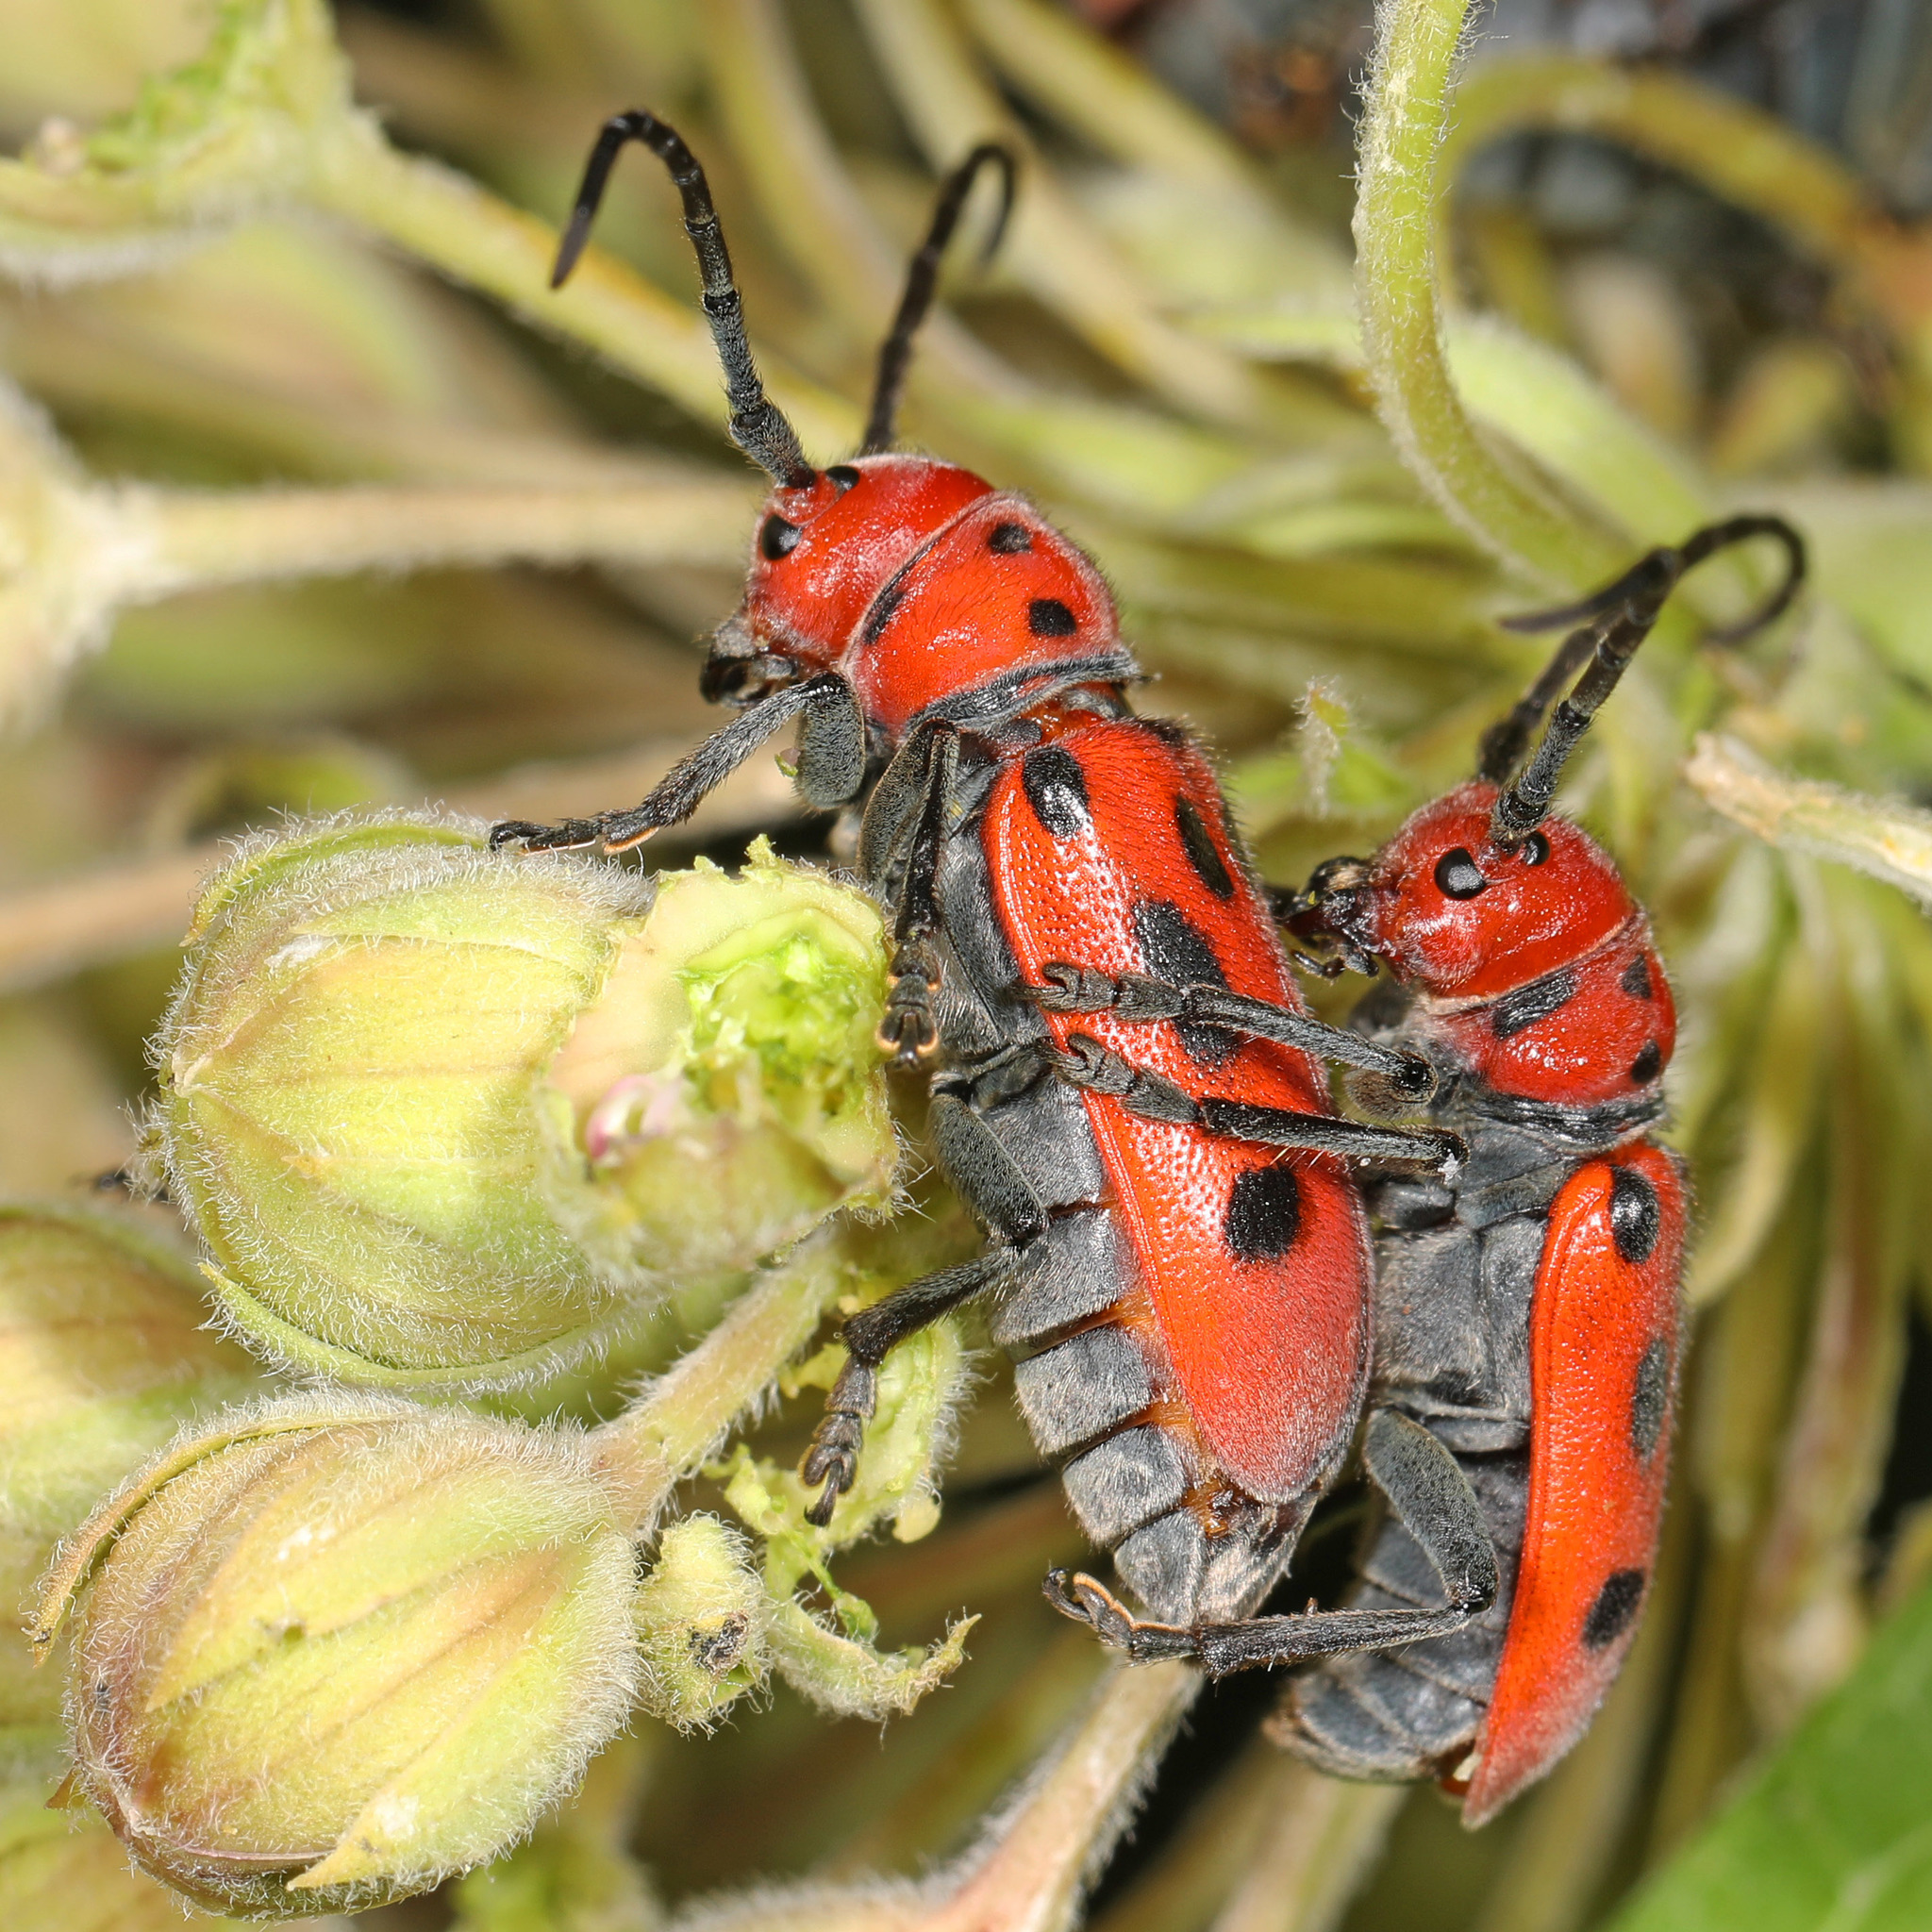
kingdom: Animalia
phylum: Arthropoda
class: Insecta
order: Coleoptera
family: Cerambycidae
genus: Tetraopes
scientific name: Tetraopes tetrophthalmus
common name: Red milkweed beetle
